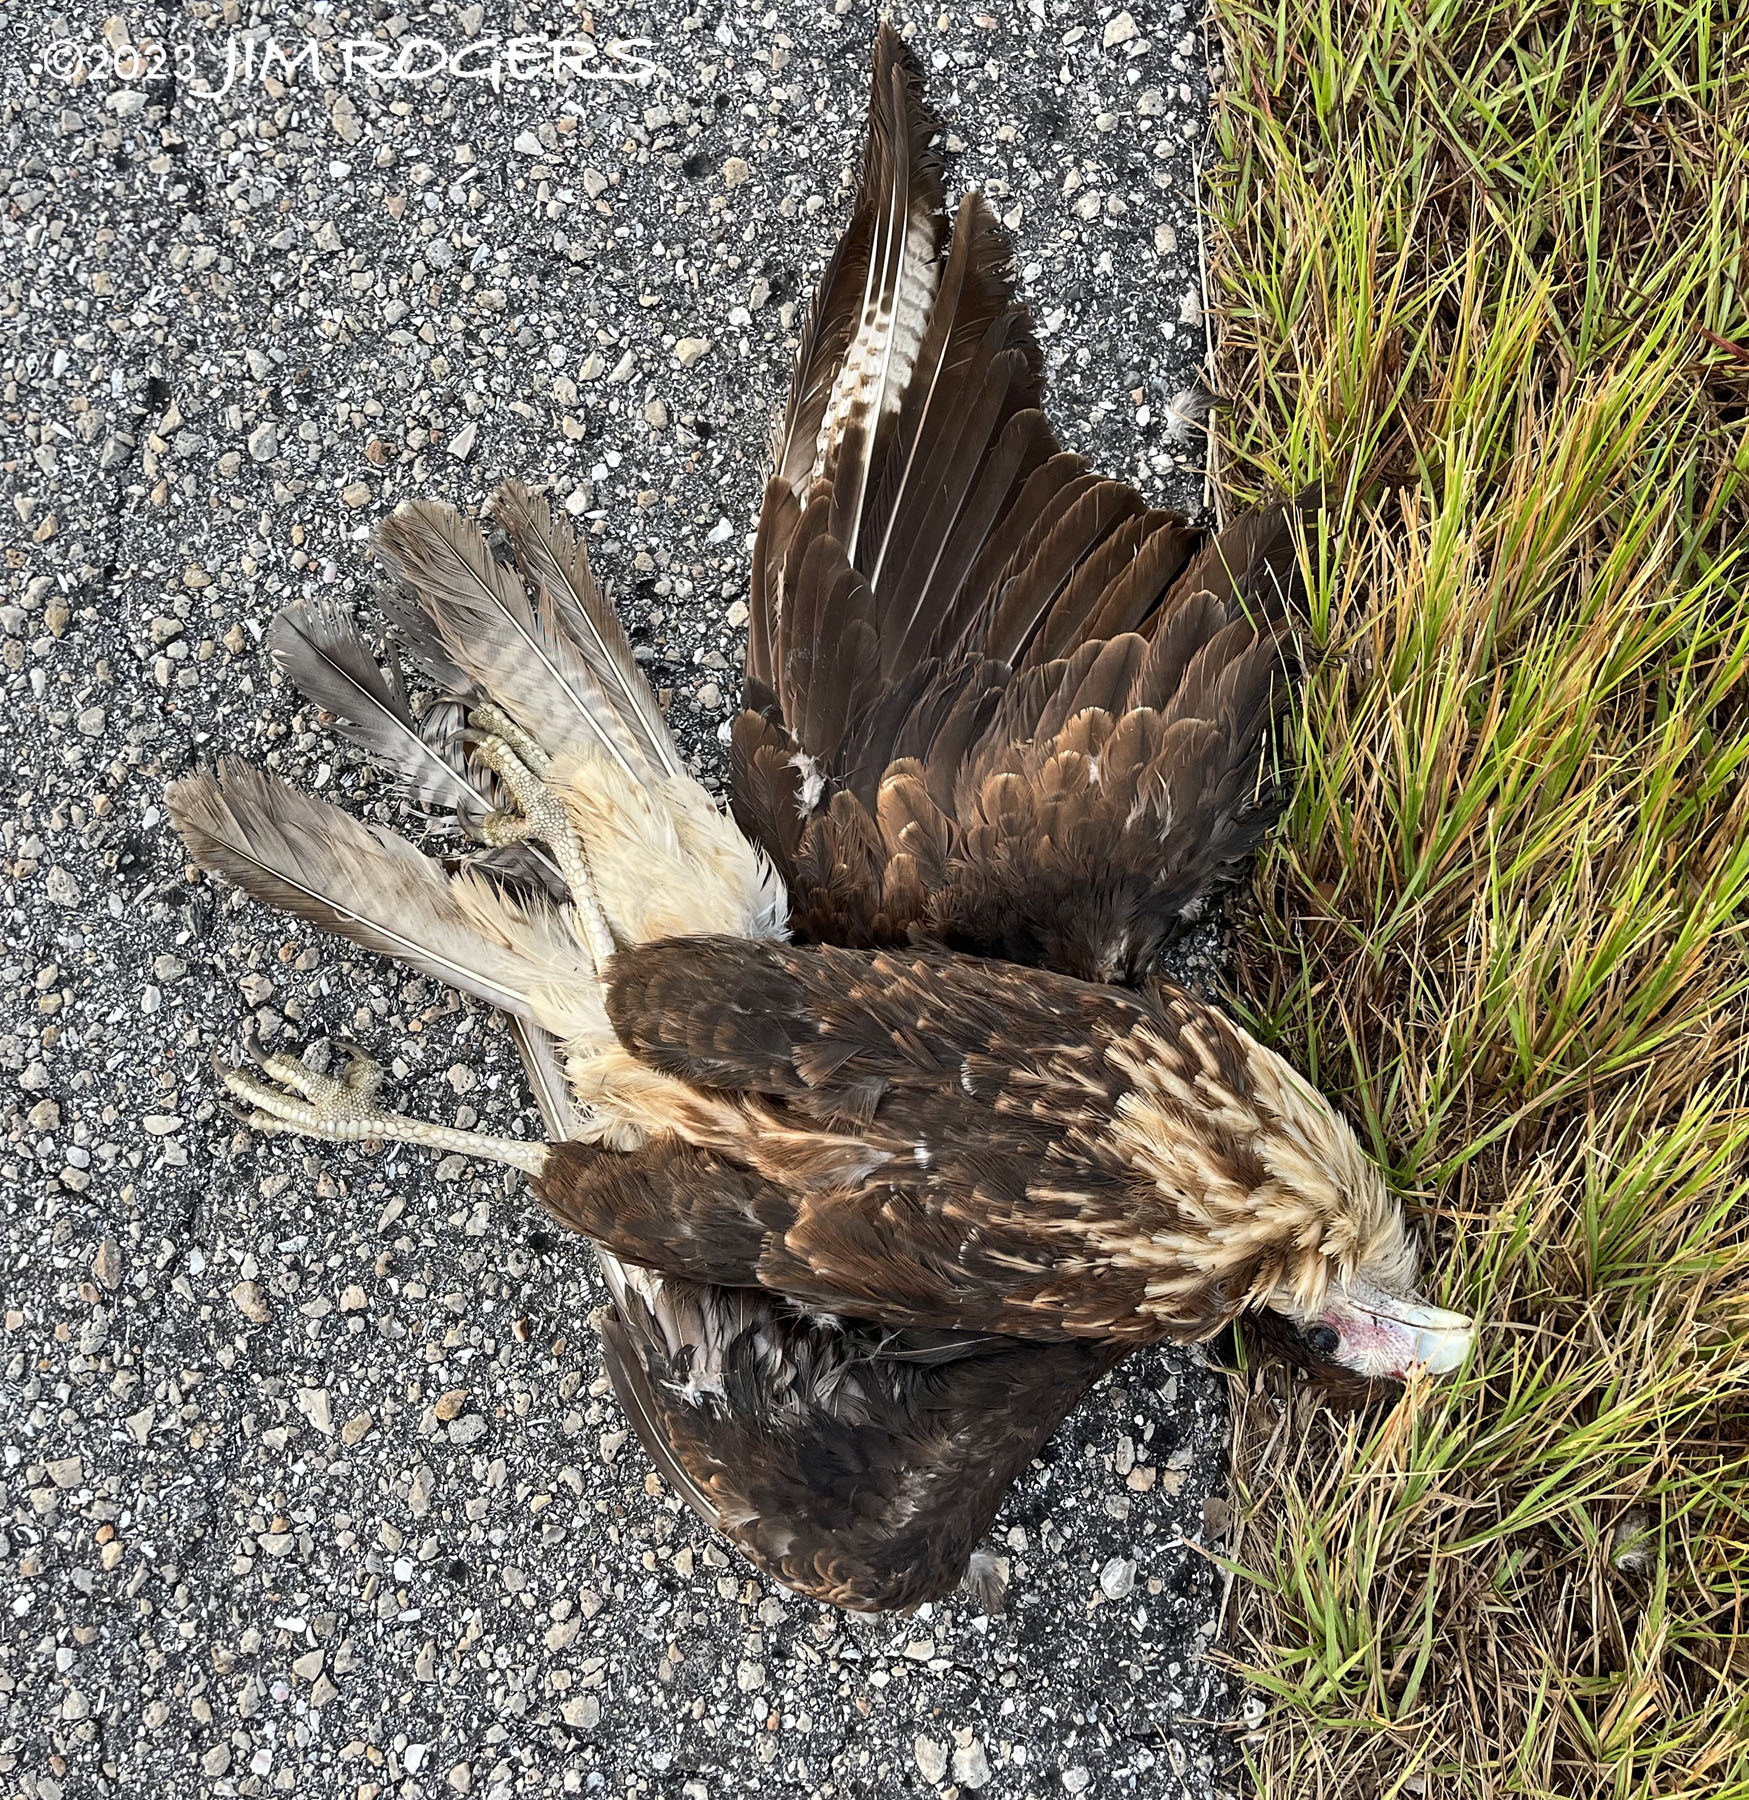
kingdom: Animalia
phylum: Chordata
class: Aves
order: Falconiformes
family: Falconidae
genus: Caracara
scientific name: Caracara plancus
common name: Southern caracara
